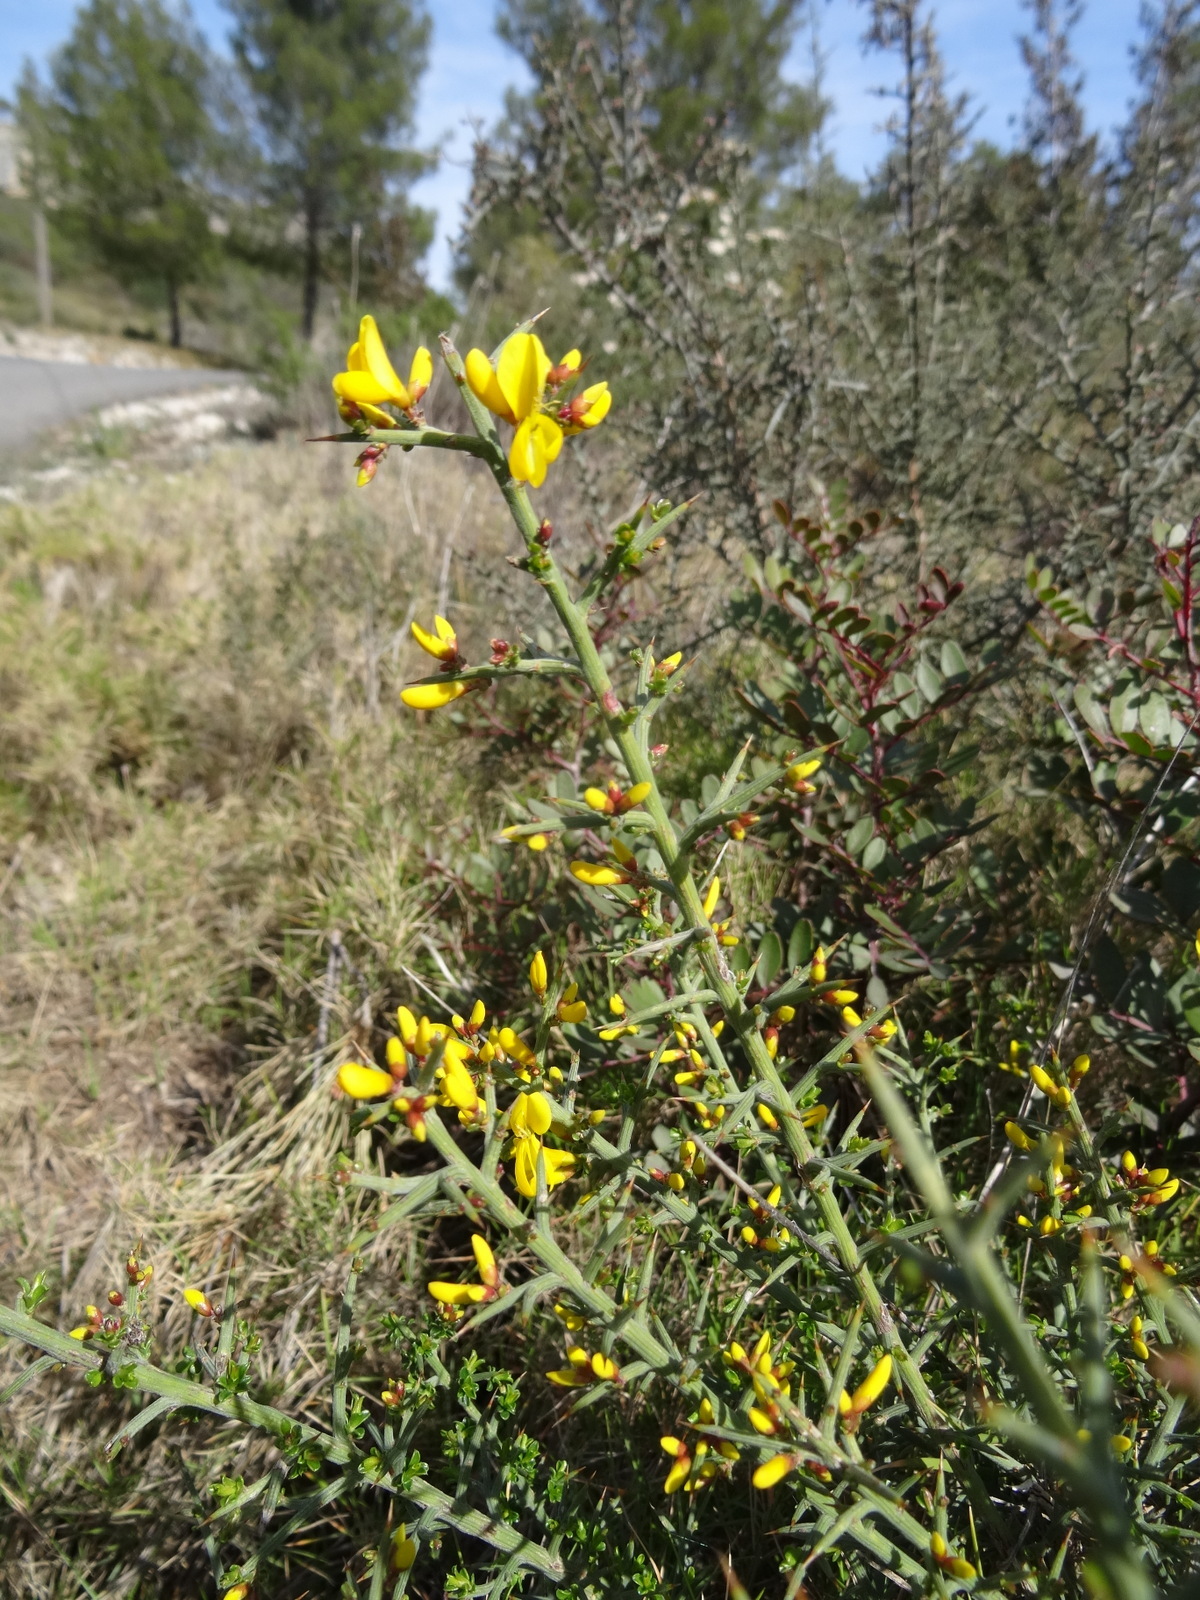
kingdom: Plantae
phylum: Tracheophyta
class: Magnoliopsida
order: Fabales
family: Fabaceae
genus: Genista
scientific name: Genista scorpius
